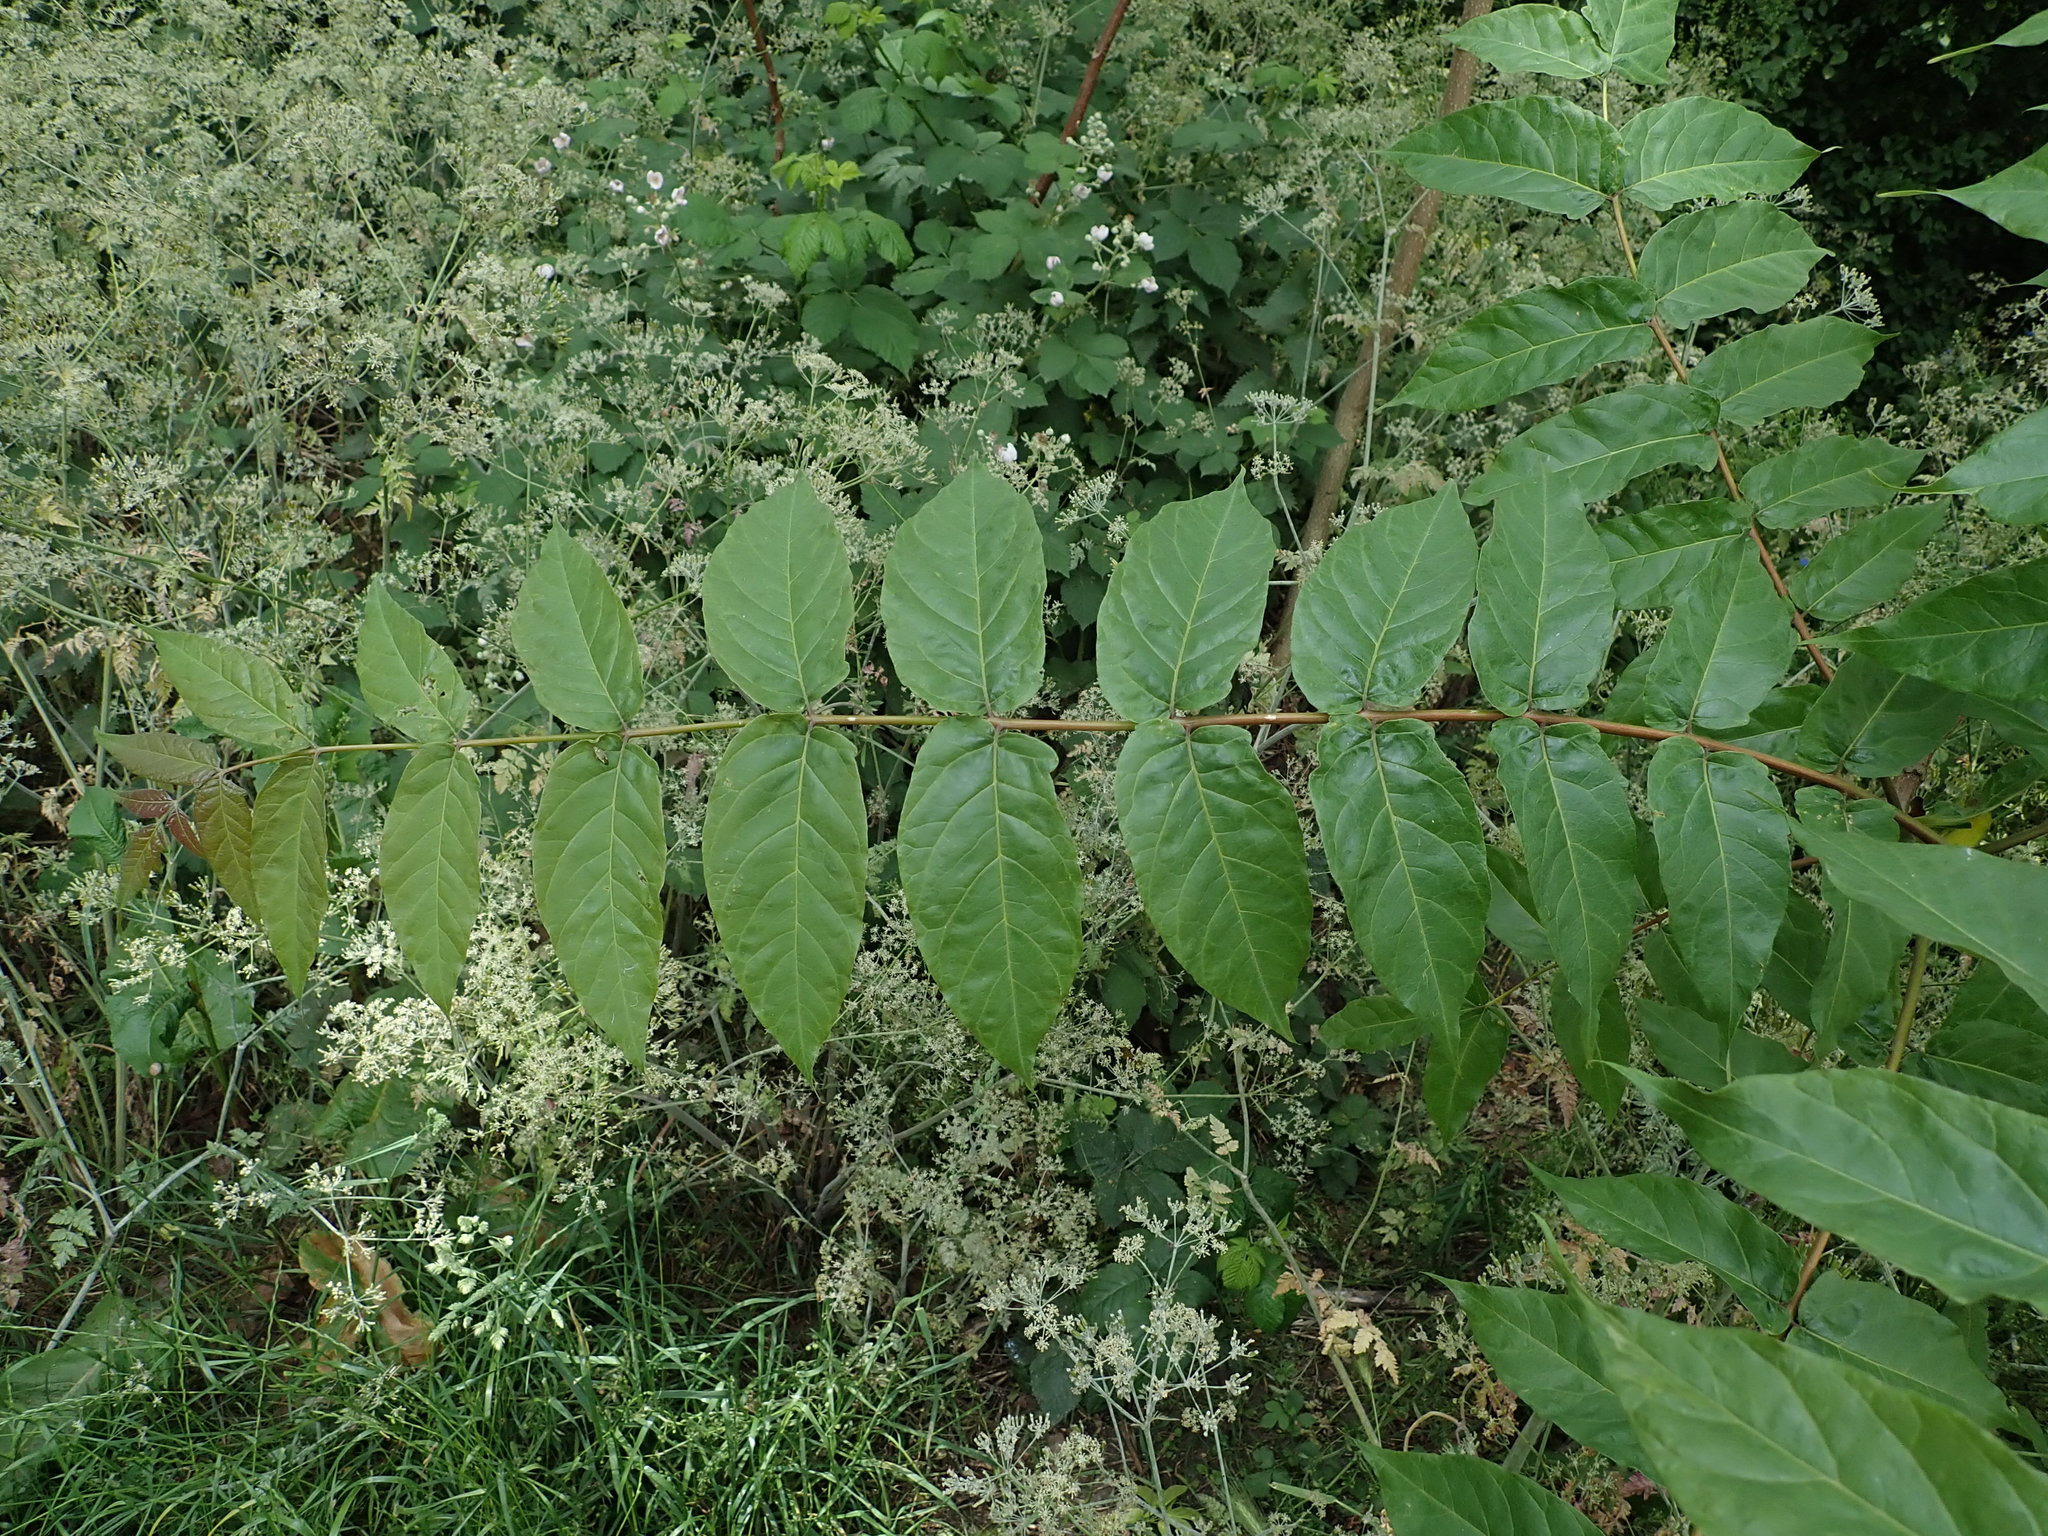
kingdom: Plantae
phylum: Tracheophyta
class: Magnoliopsida
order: Sapindales
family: Simaroubaceae
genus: Ailanthus
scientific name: Ailanthus altissima
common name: Tree-of-heaven
